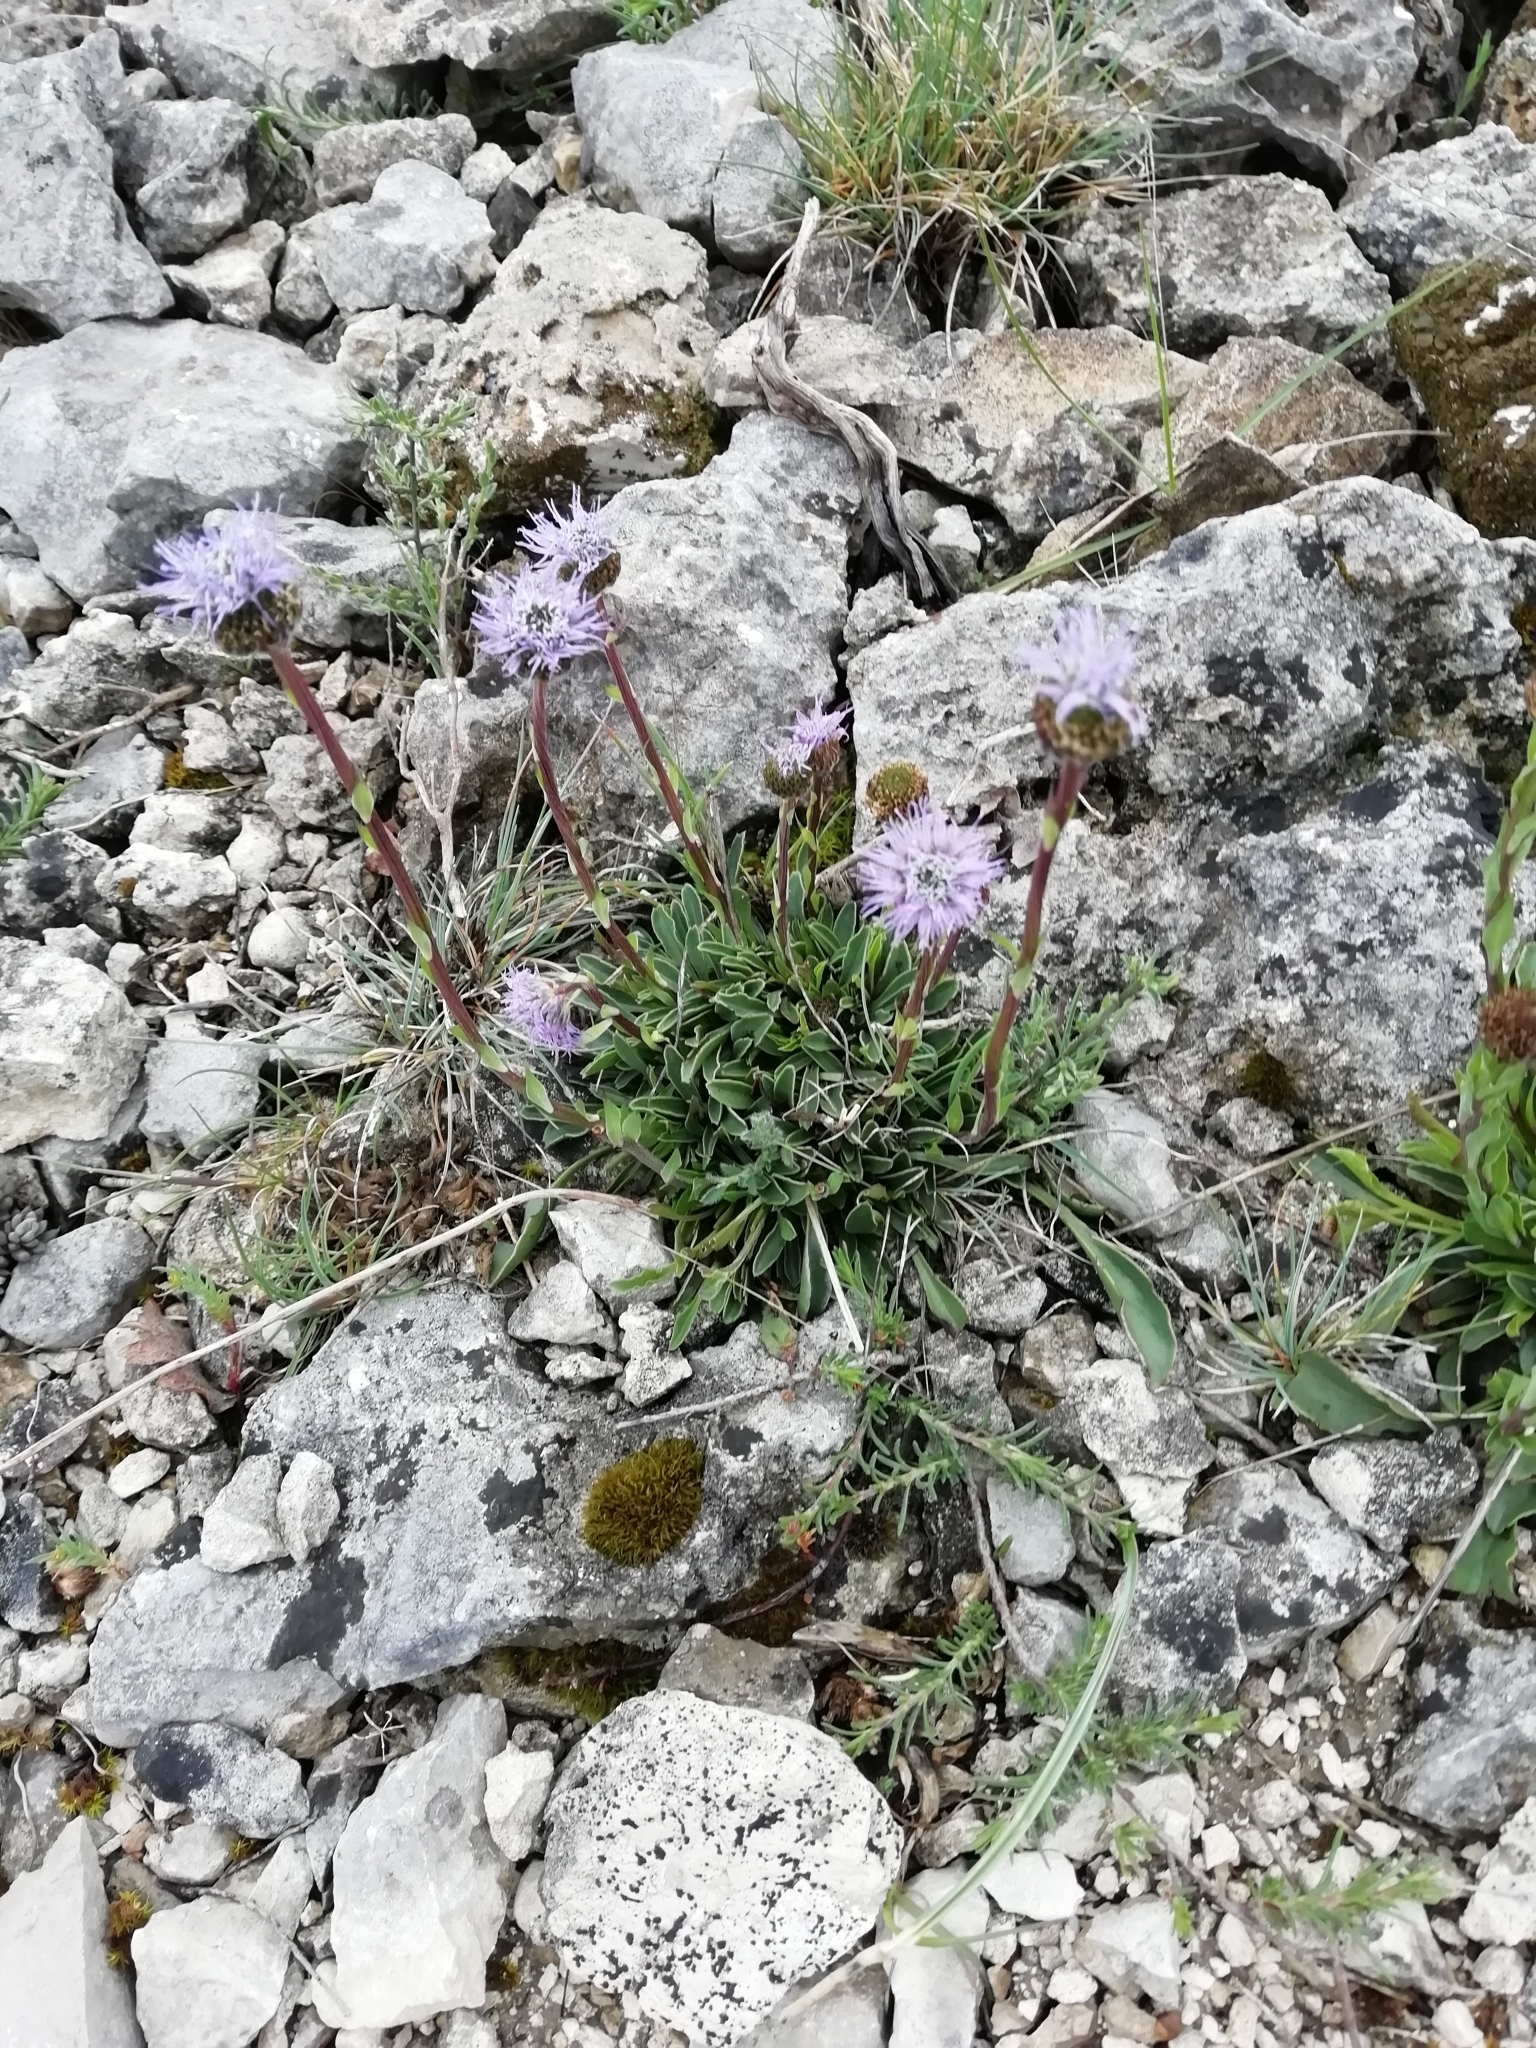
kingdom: Plantae
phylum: Tracheophyta
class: Magnoliopsida
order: Lamiales
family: Plantaginaceae
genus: Globularia
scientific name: Globularia vulgaris
